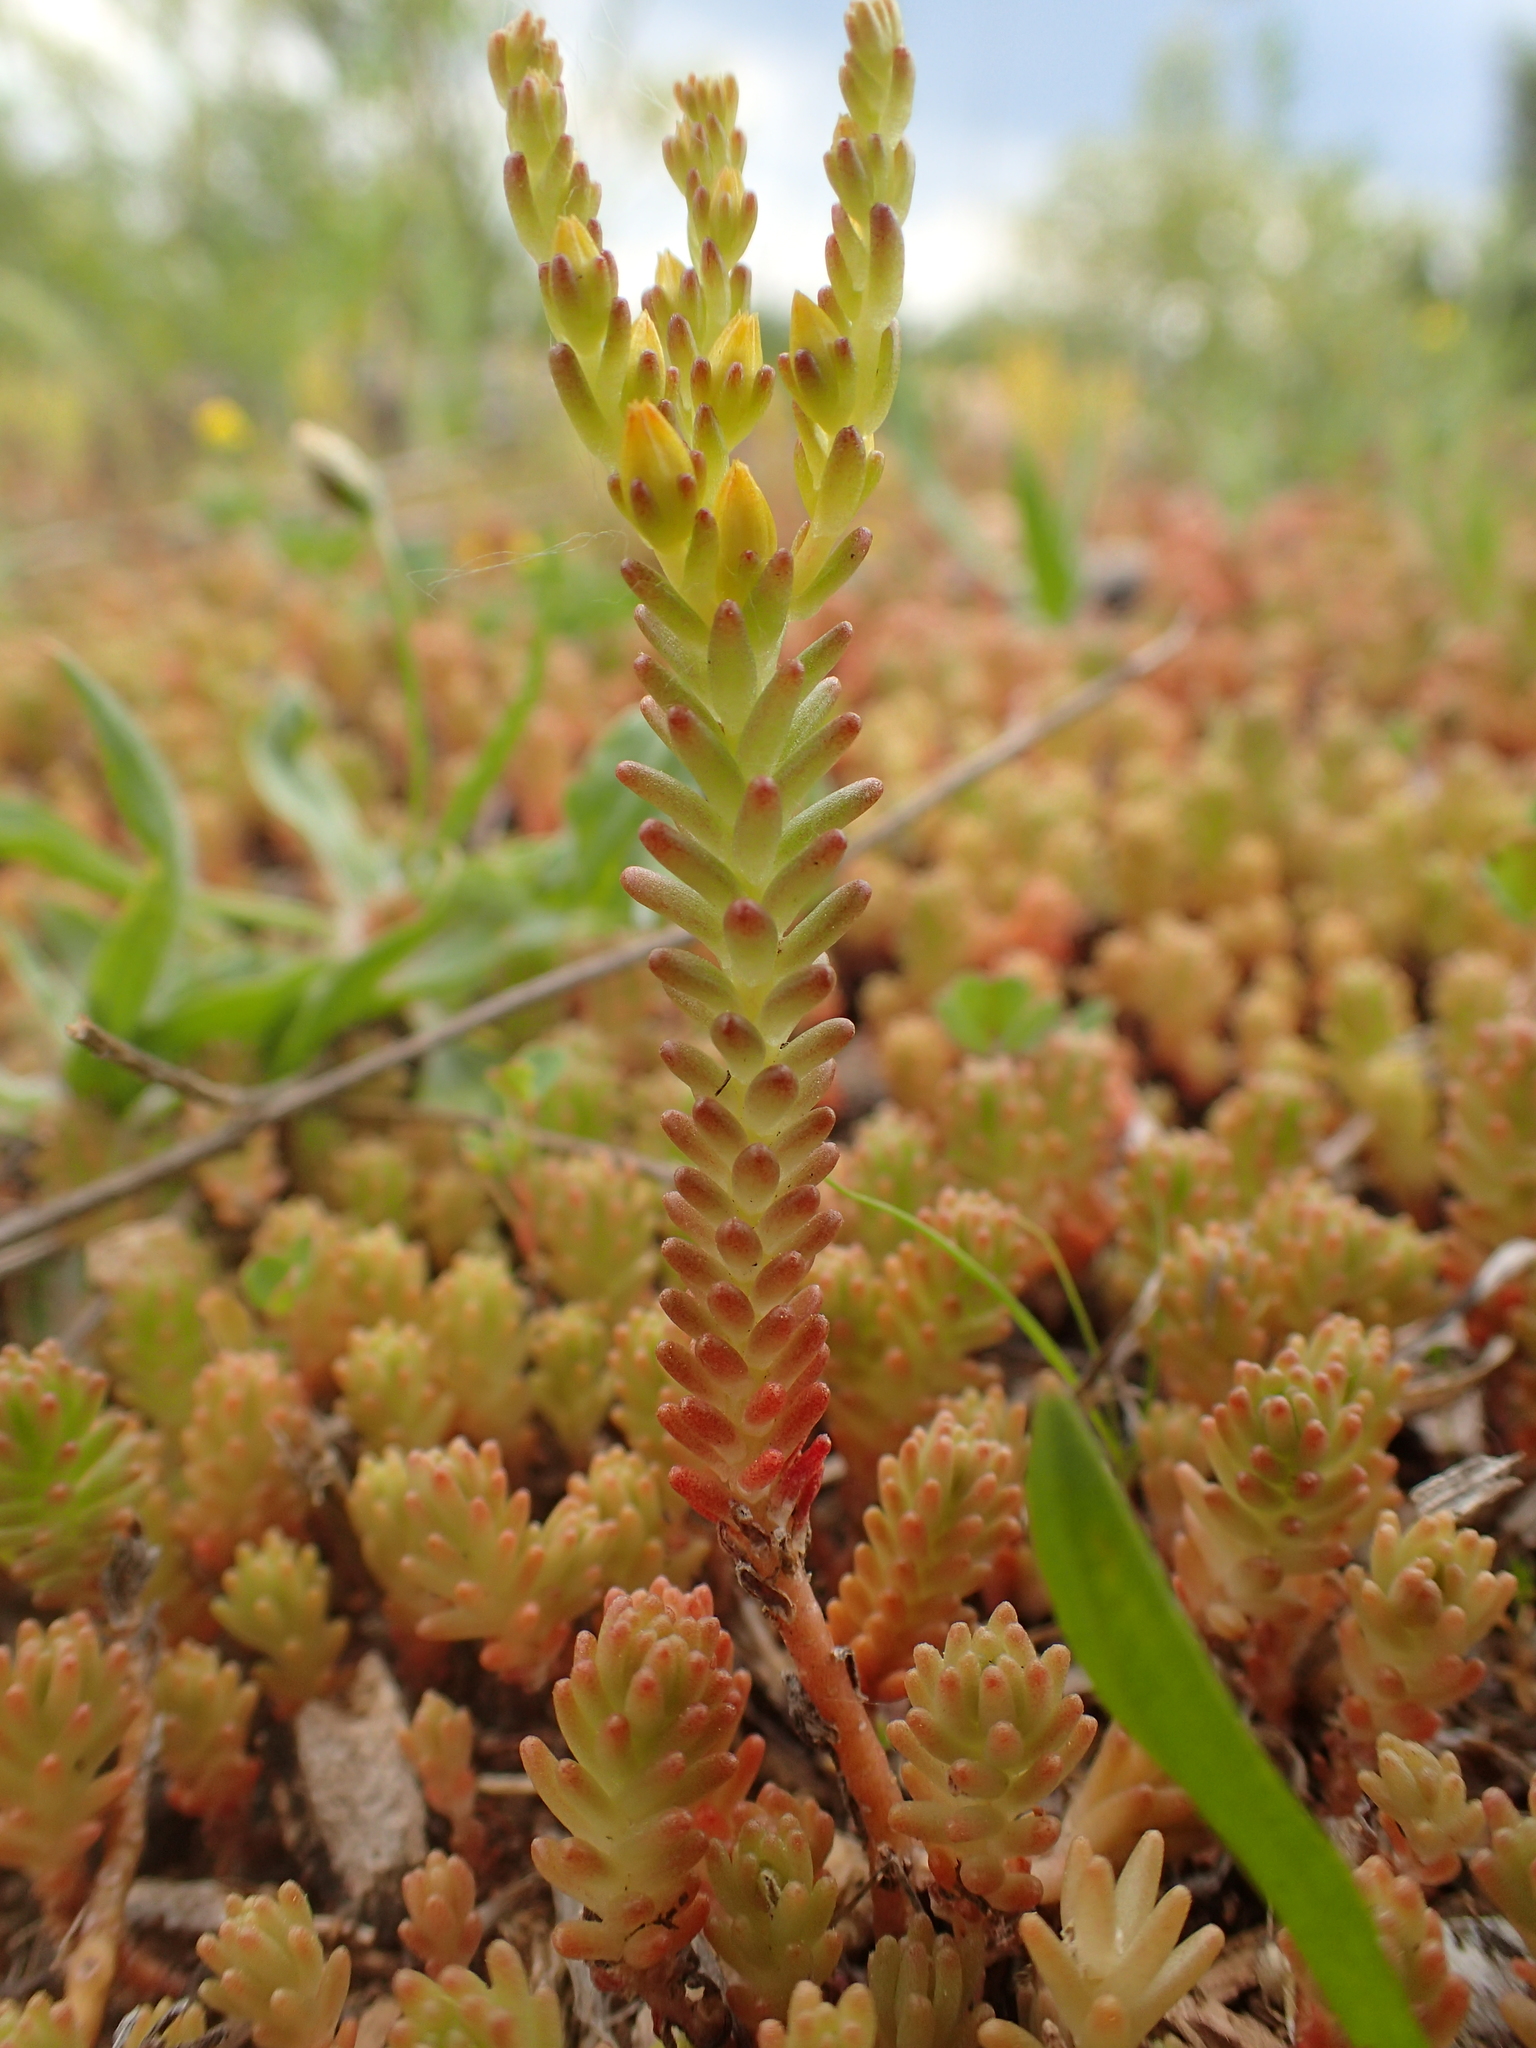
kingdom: Plantae
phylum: Tracheophyta
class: Magnoliopsida
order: Saxifragales
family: Crassulaceae
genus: Sedum
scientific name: Sedum sexangulare
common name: Tasteless stonecrop
